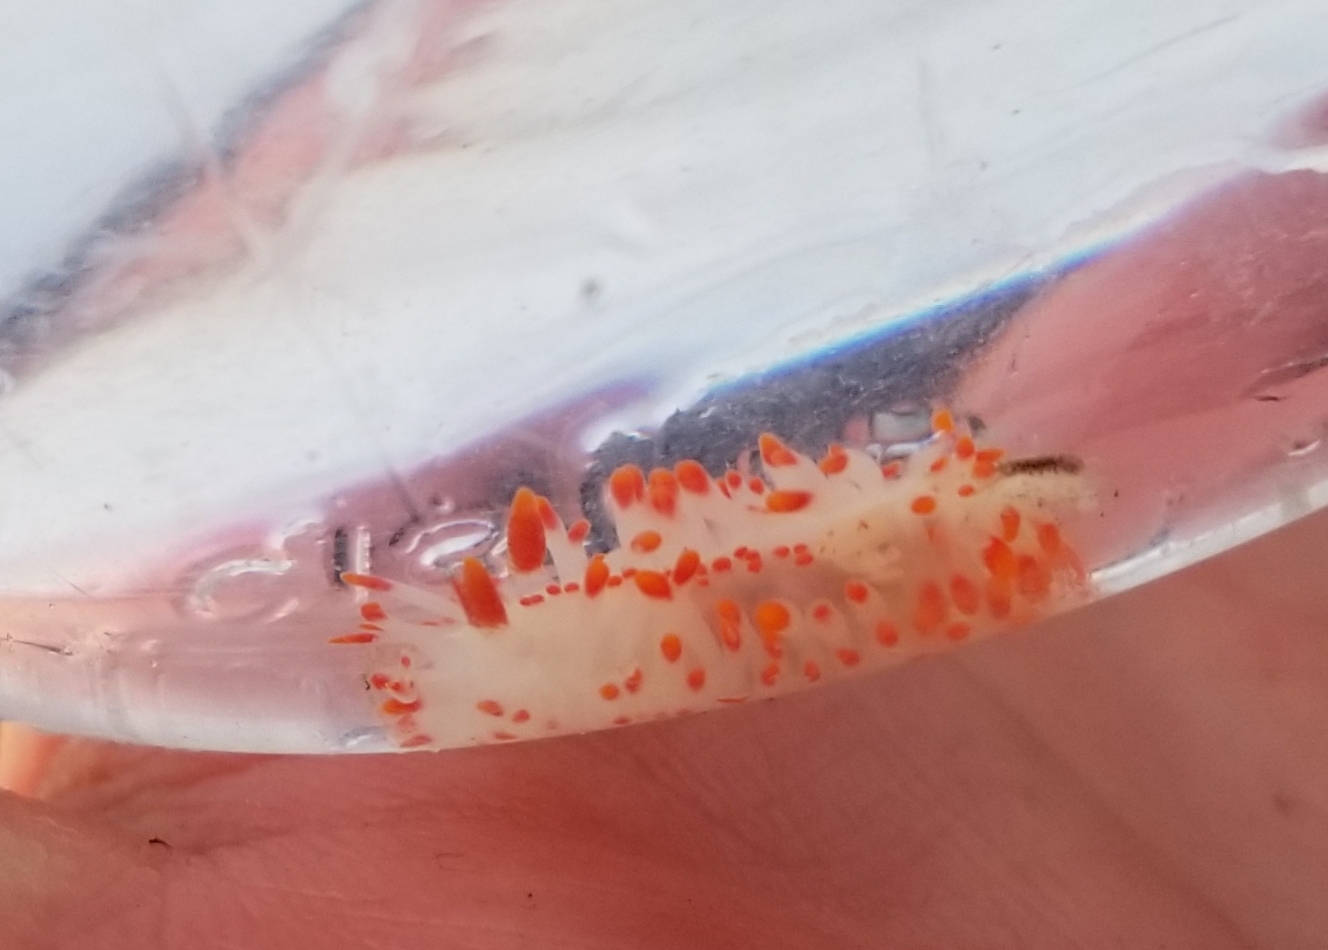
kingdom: Animalia
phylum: Mollusca
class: Gastropoda
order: Nudibranchia
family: Polyceridae
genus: Limacia
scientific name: Limacia mcdonaldi
